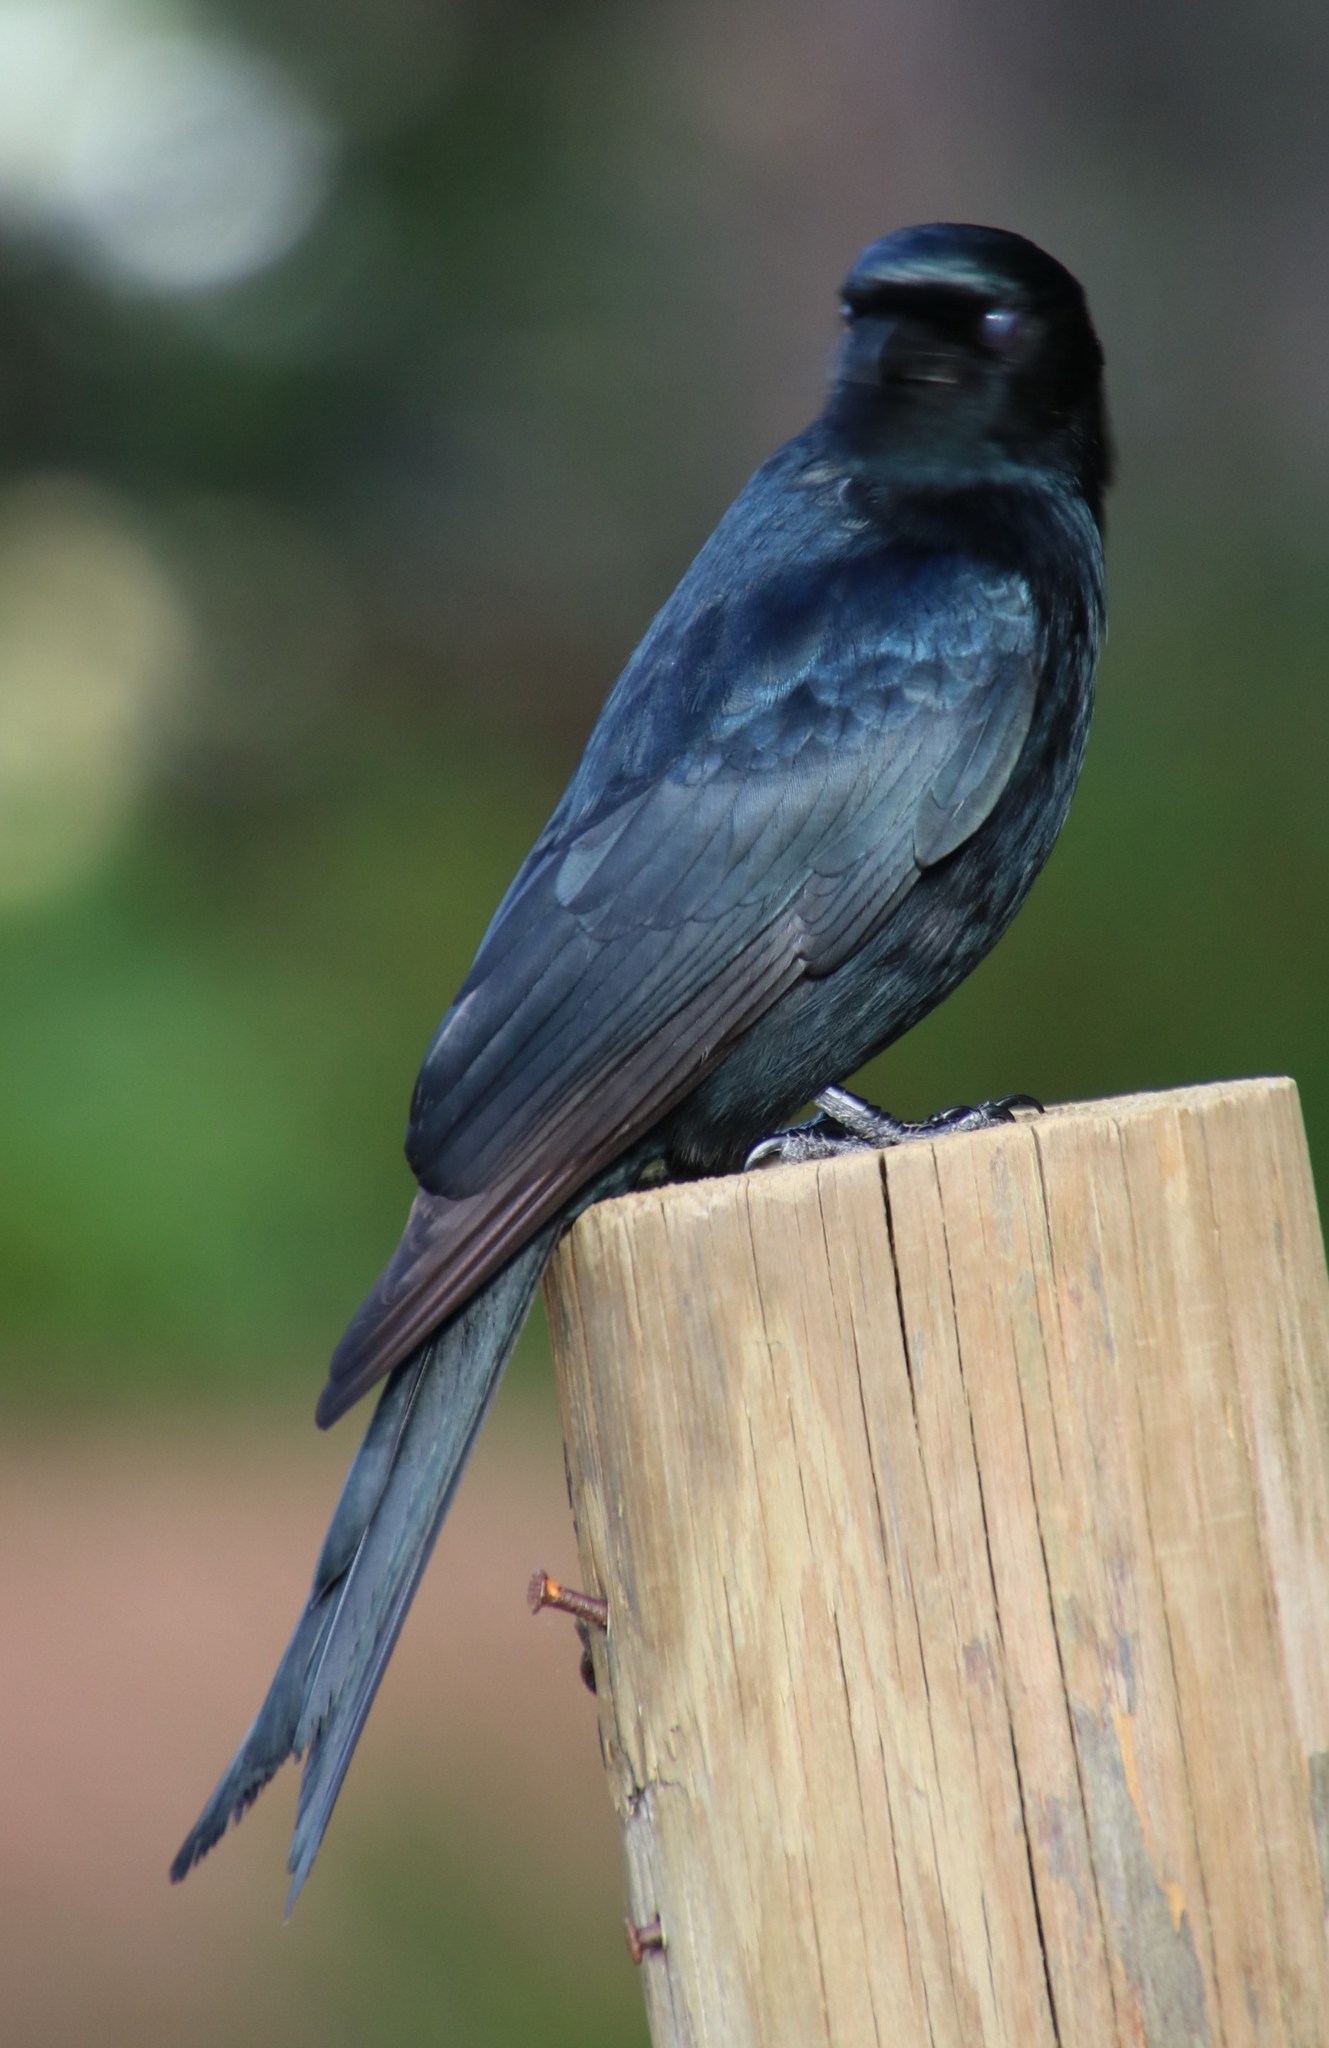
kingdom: Animalia
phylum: Chordata
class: Aves
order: Passeriformes
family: Dicruridae
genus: Dicrurus
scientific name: Dicrurus adsimilis
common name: Fork-tailed drongo
